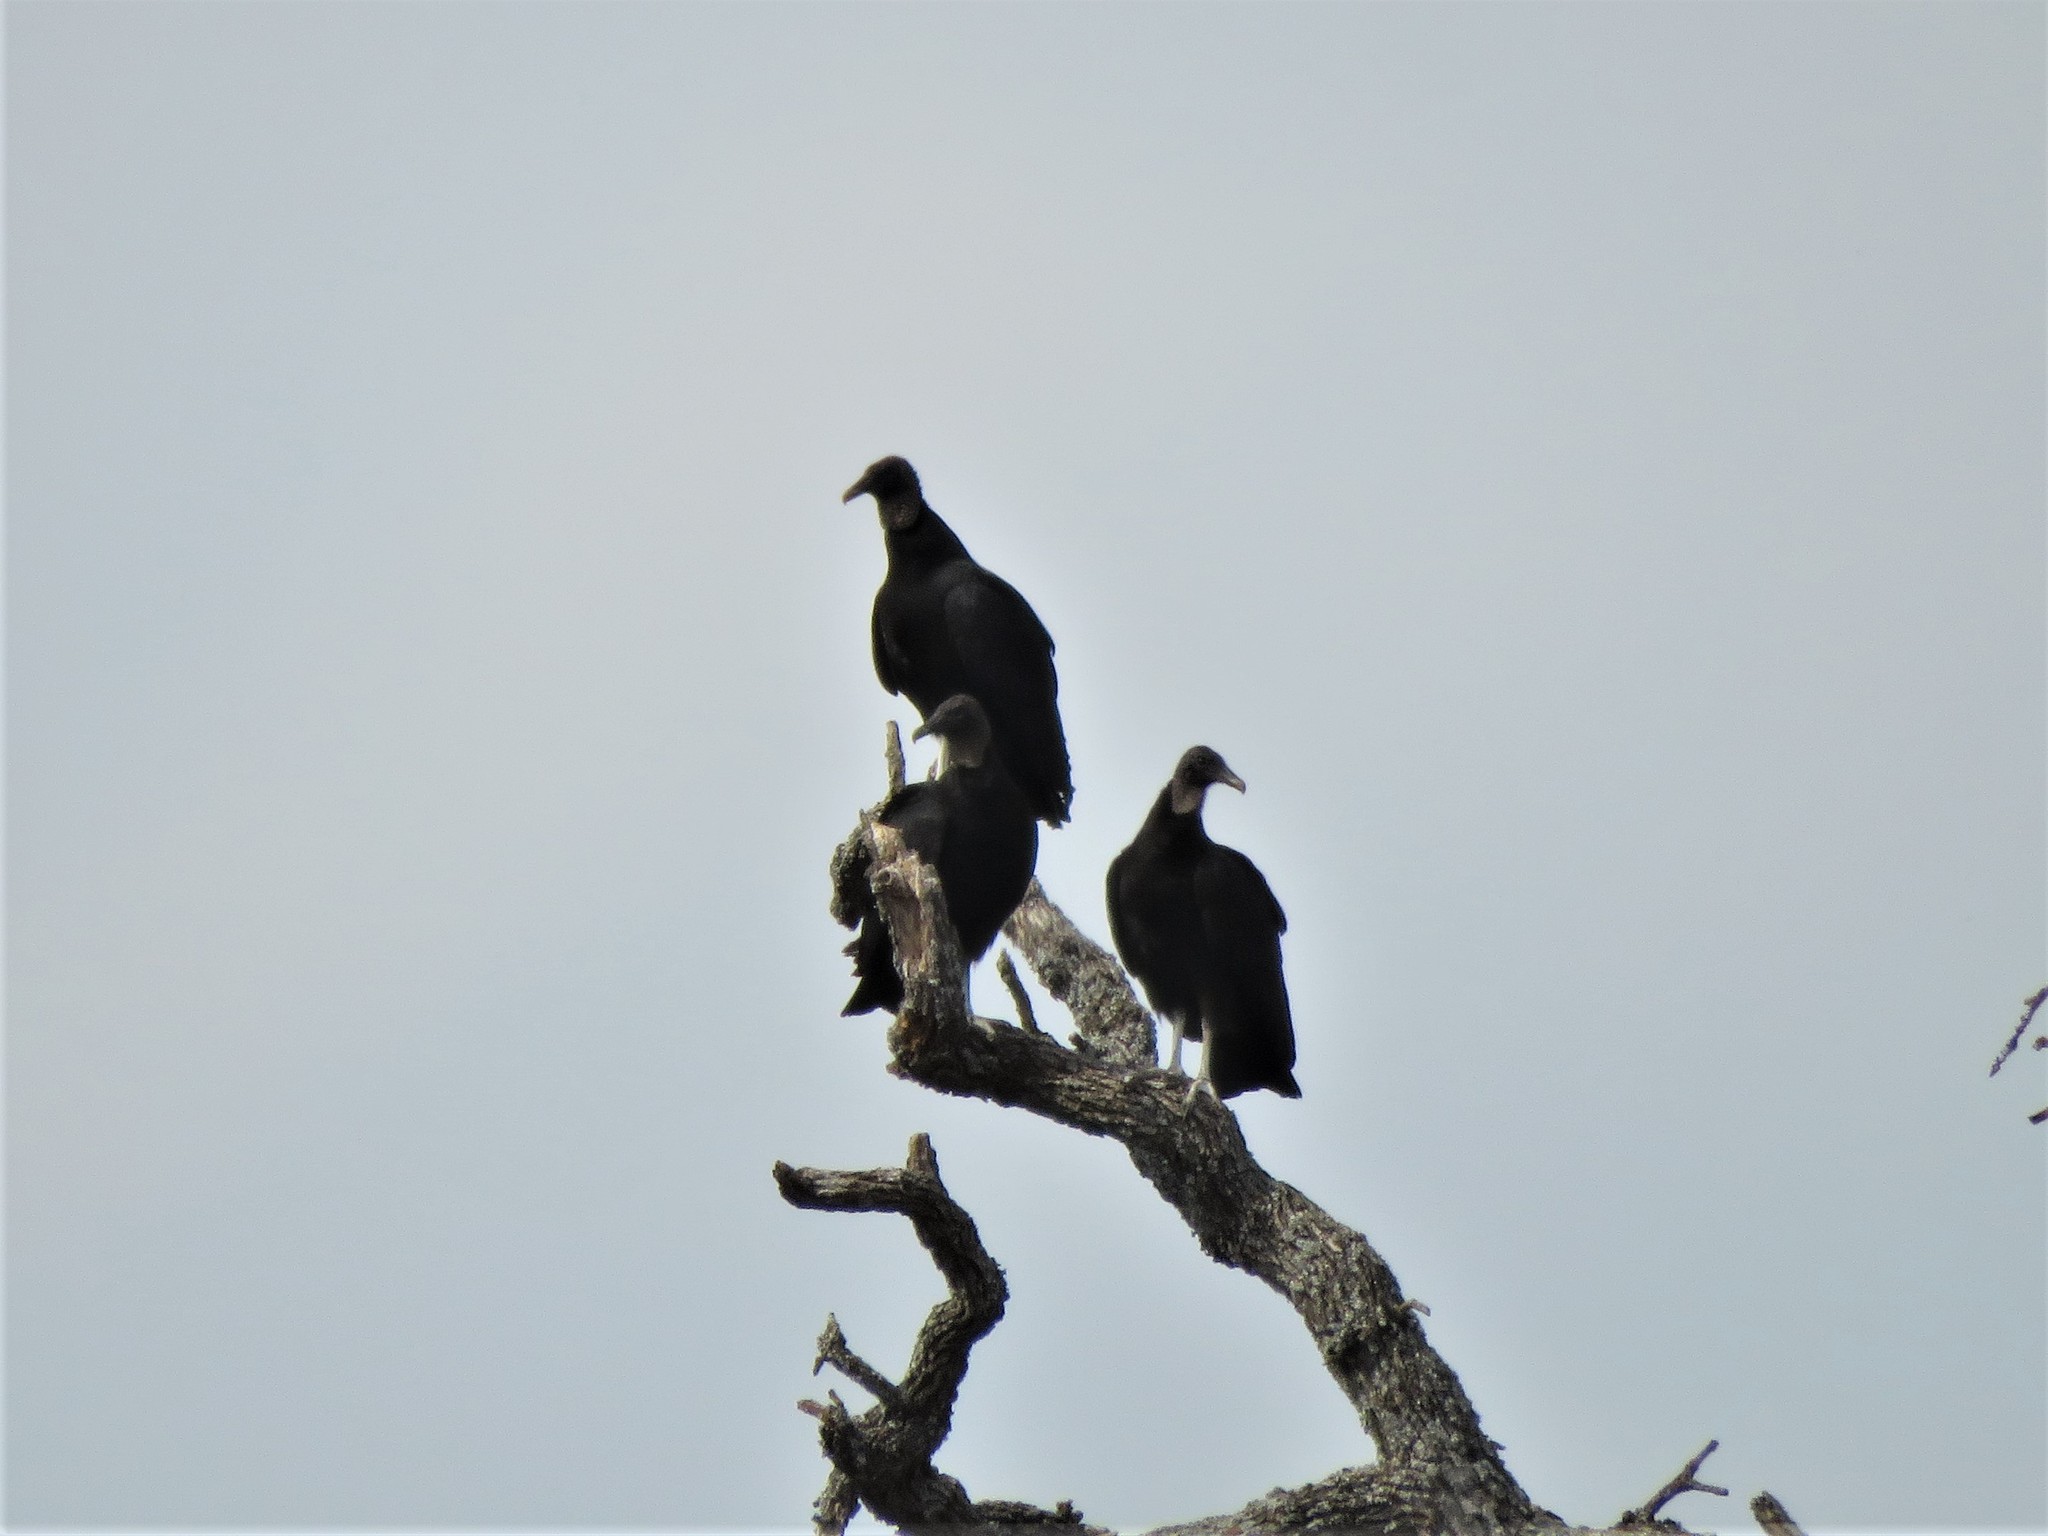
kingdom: Animalia
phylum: Chordata
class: Aves
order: Accipitriformes
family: Cathartidae
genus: Coragyps
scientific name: Coragyps atratus
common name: Black vulture
